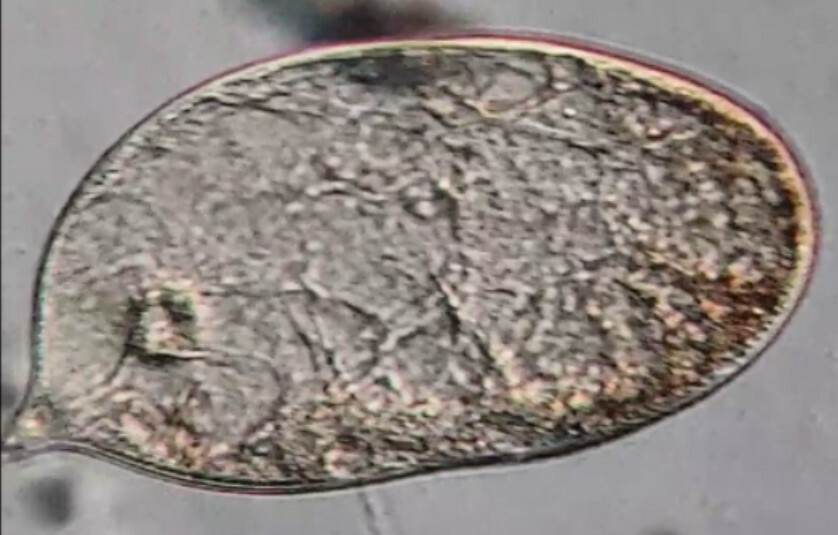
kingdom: Chromista
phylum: Ciliophora
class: Litostomatea
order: Dileptida
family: Dileptidae
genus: Trachelius
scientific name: Trachelius ovum
